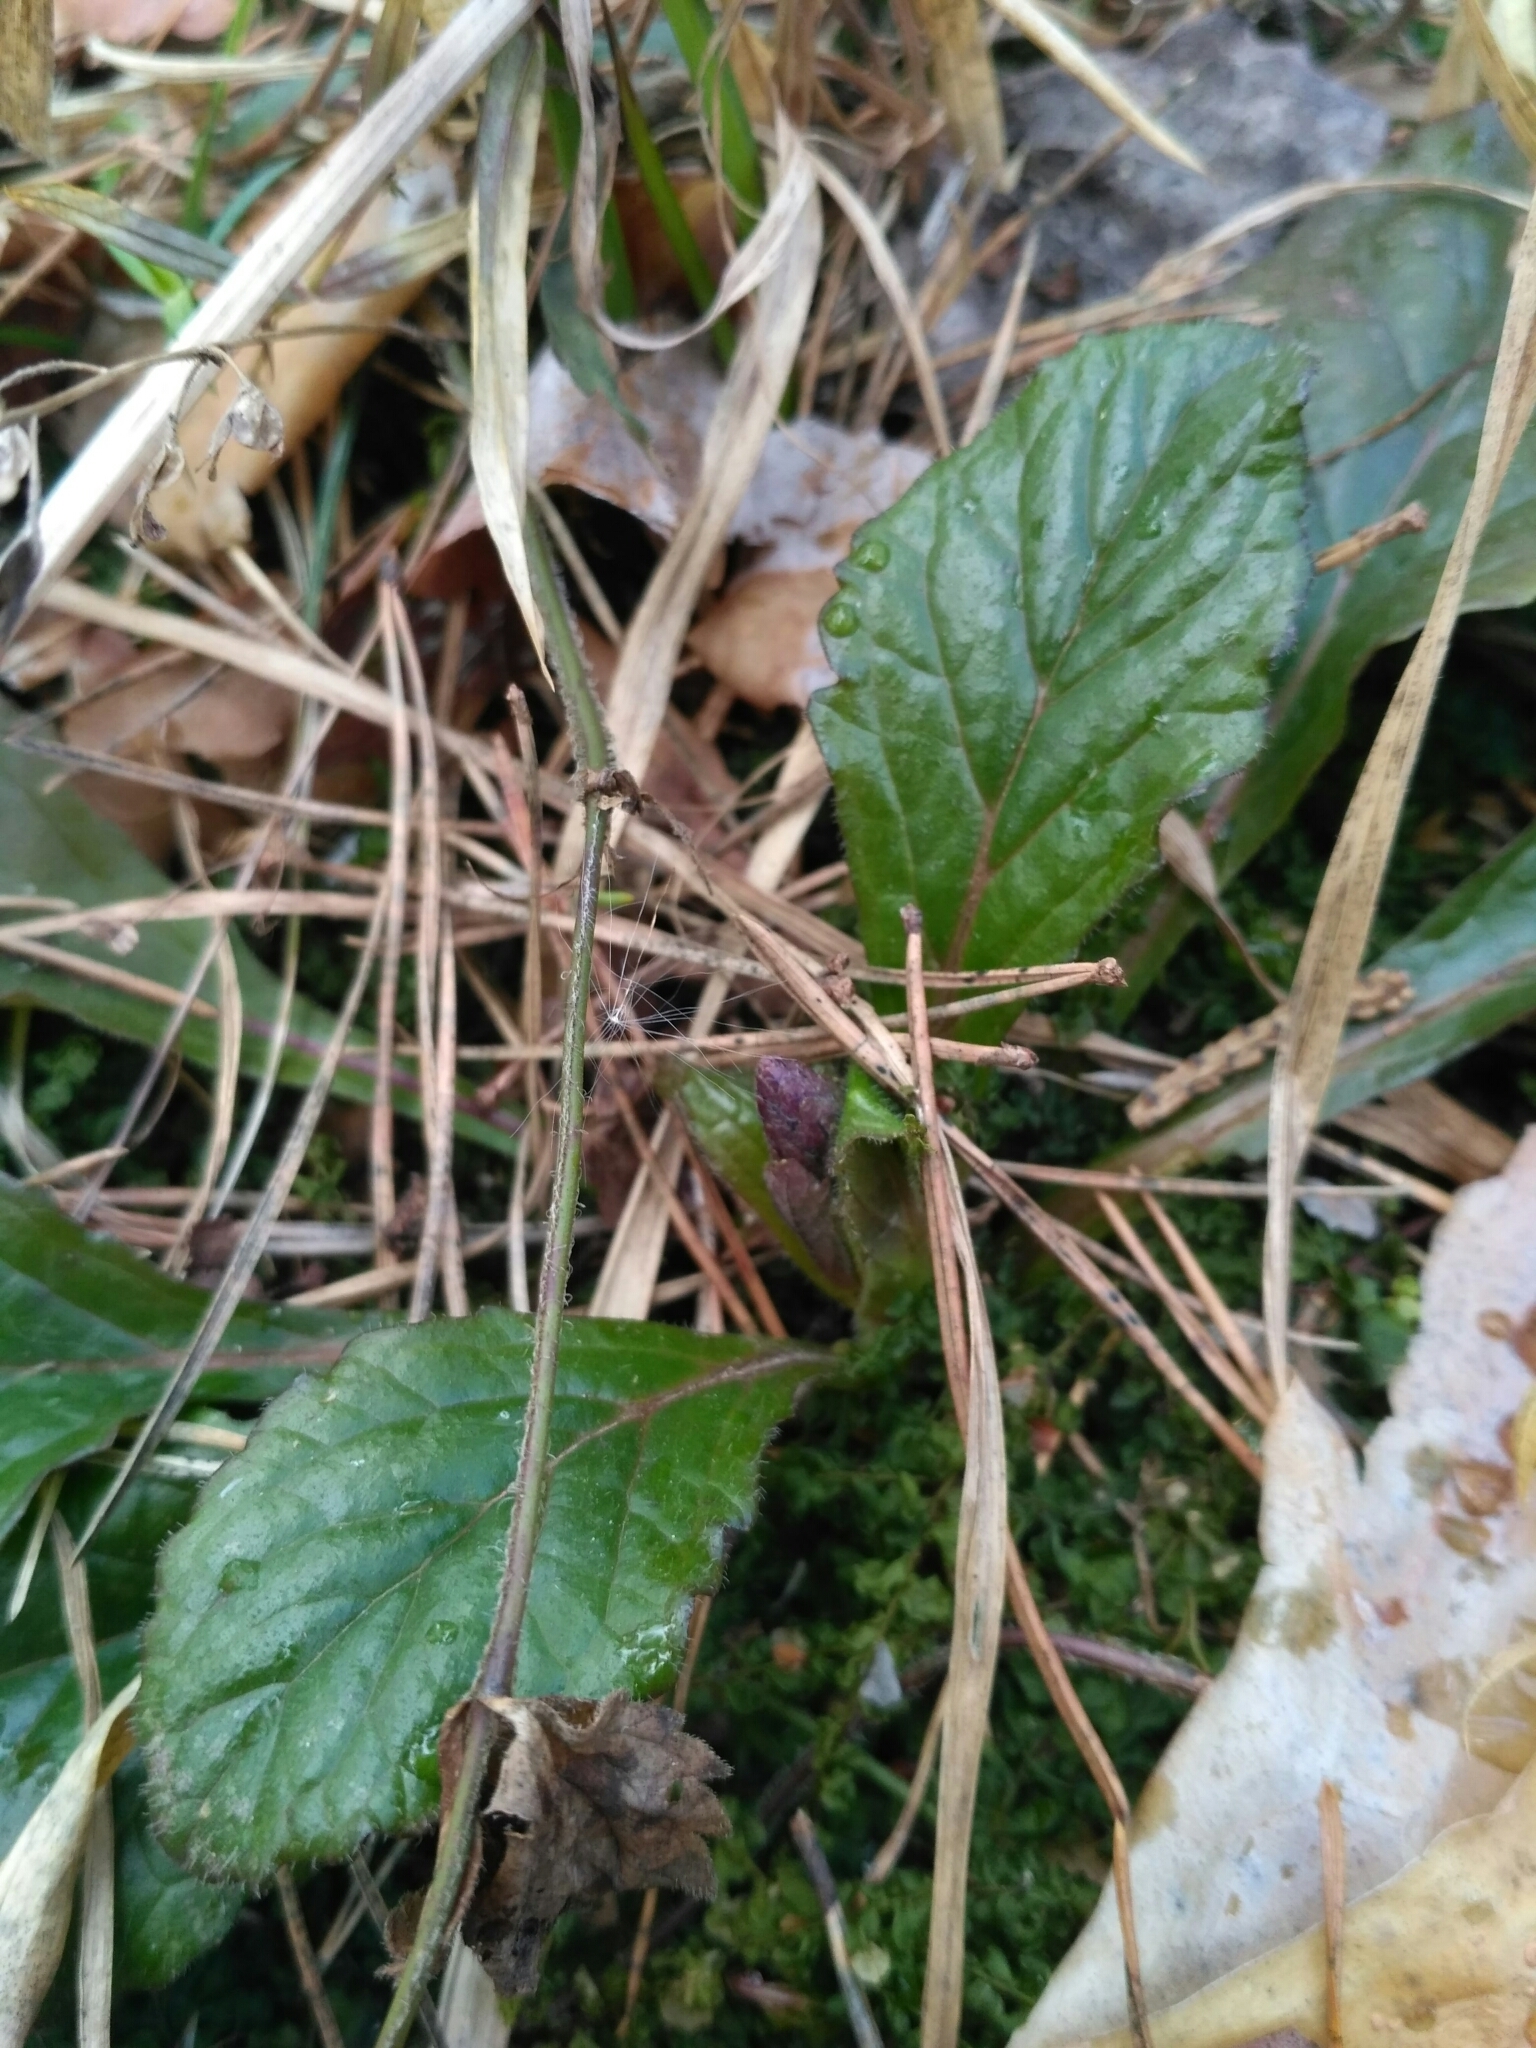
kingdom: Plantae
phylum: Tracheophyta
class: Magnoliopsida
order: Lamiales
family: Lamiaceae
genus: Ajuga
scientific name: Ajuga reptans
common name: Bugle
